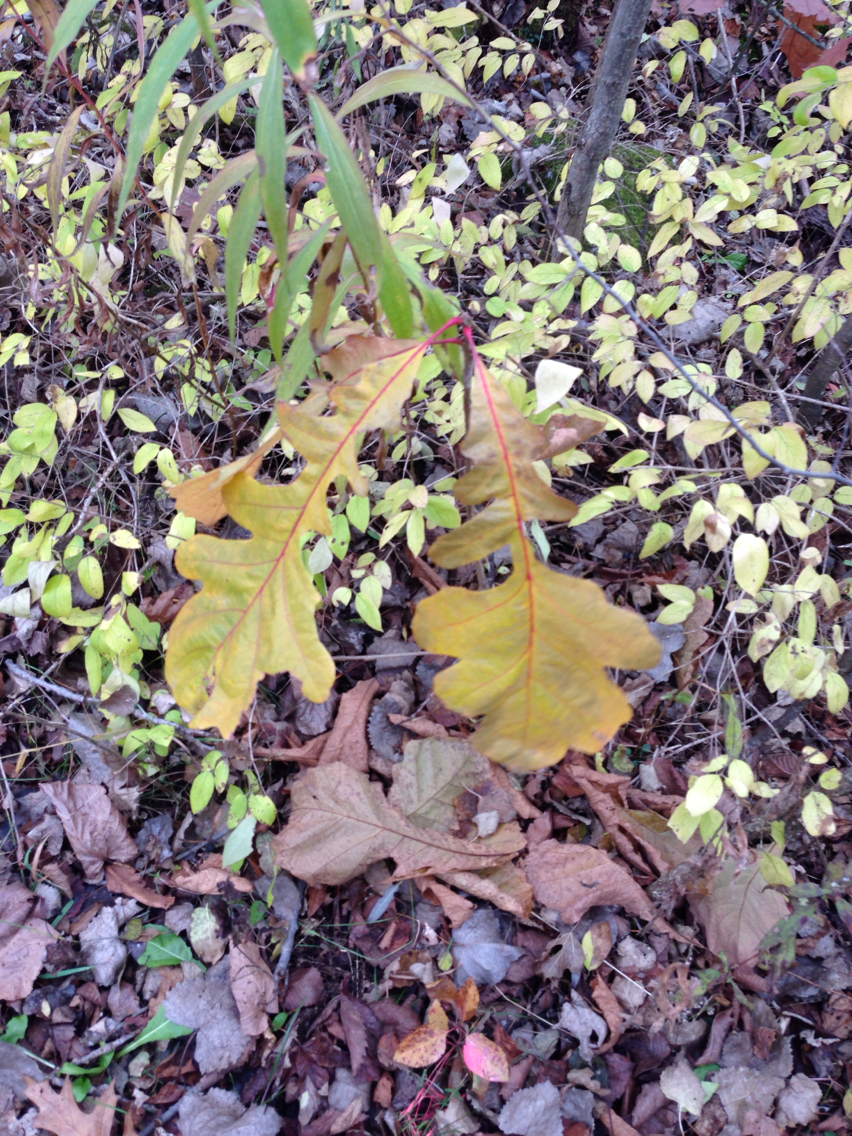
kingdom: Plantae
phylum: Tracheophyta
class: Magnoliopsida
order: Fagales
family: Fagaceae
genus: Quercus
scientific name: Quercus macrocarpa
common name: Bur oak
